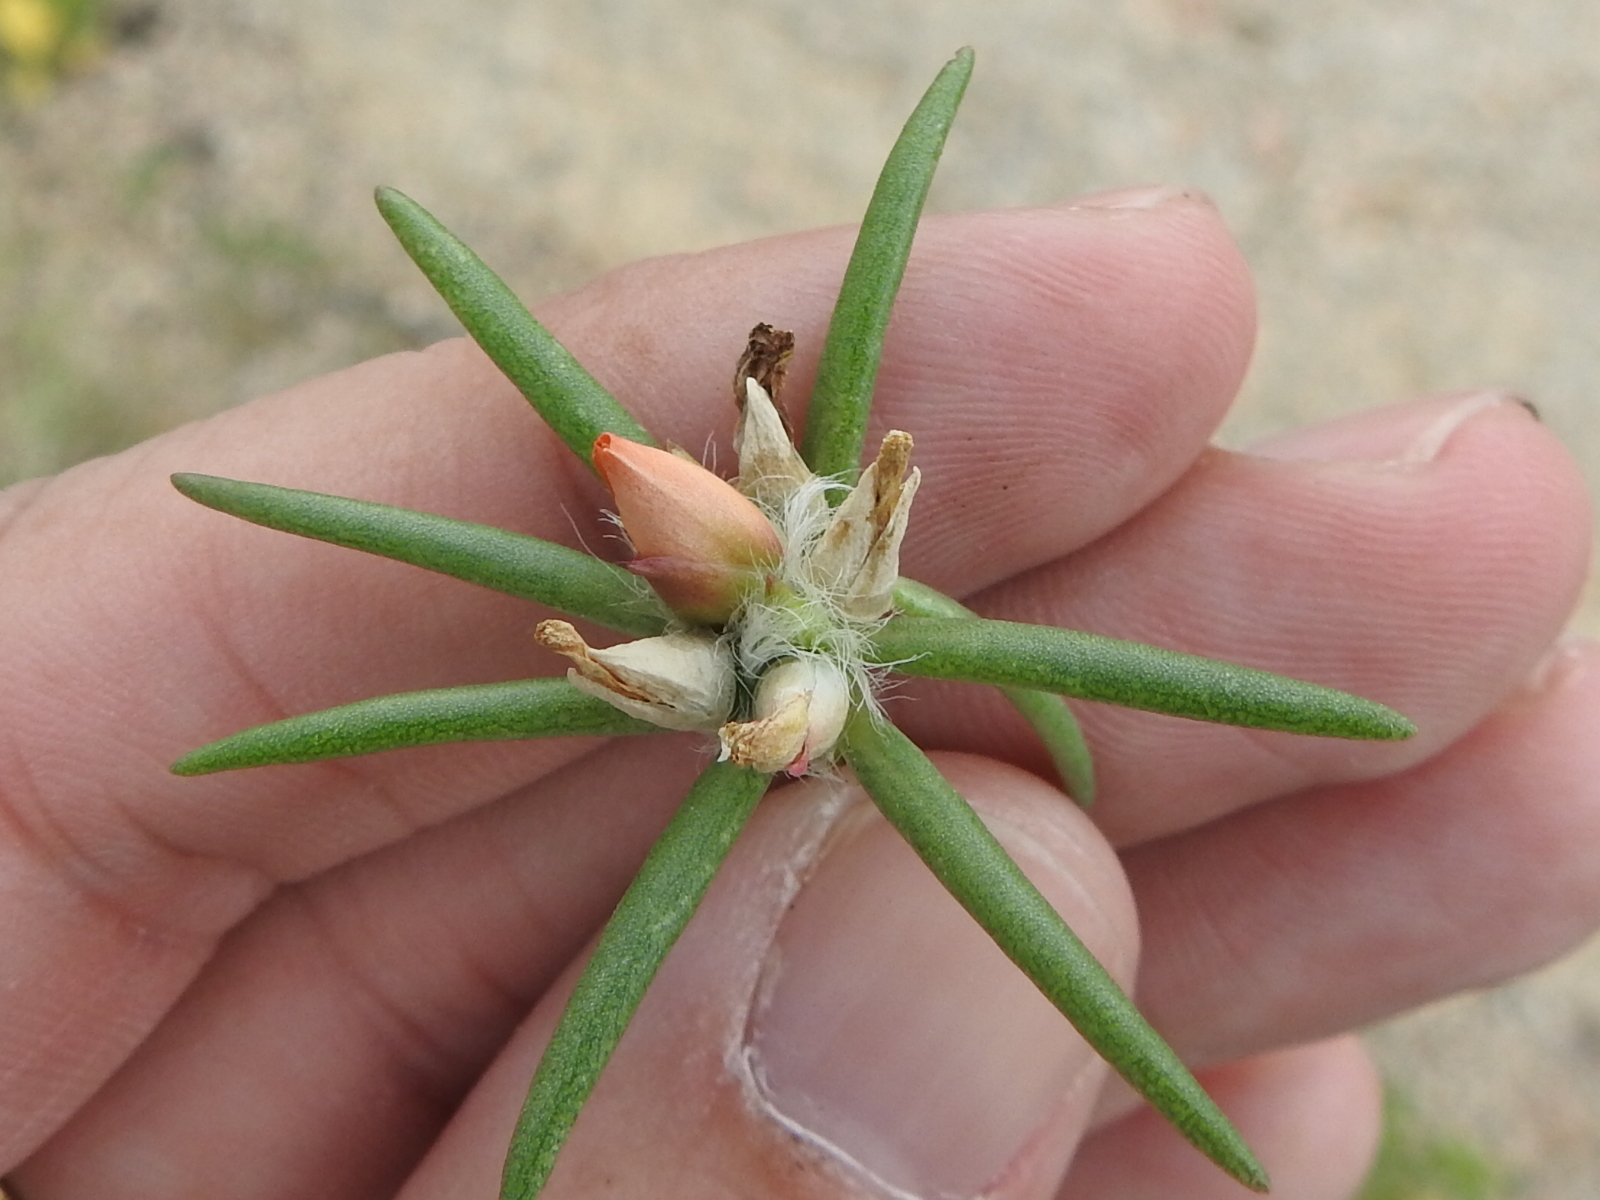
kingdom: Plantae
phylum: Tracheophyta
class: Magnoliopsida
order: Caryophyllales
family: Portulacaceae
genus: Portulaca
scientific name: Portulaca suffrutescens
